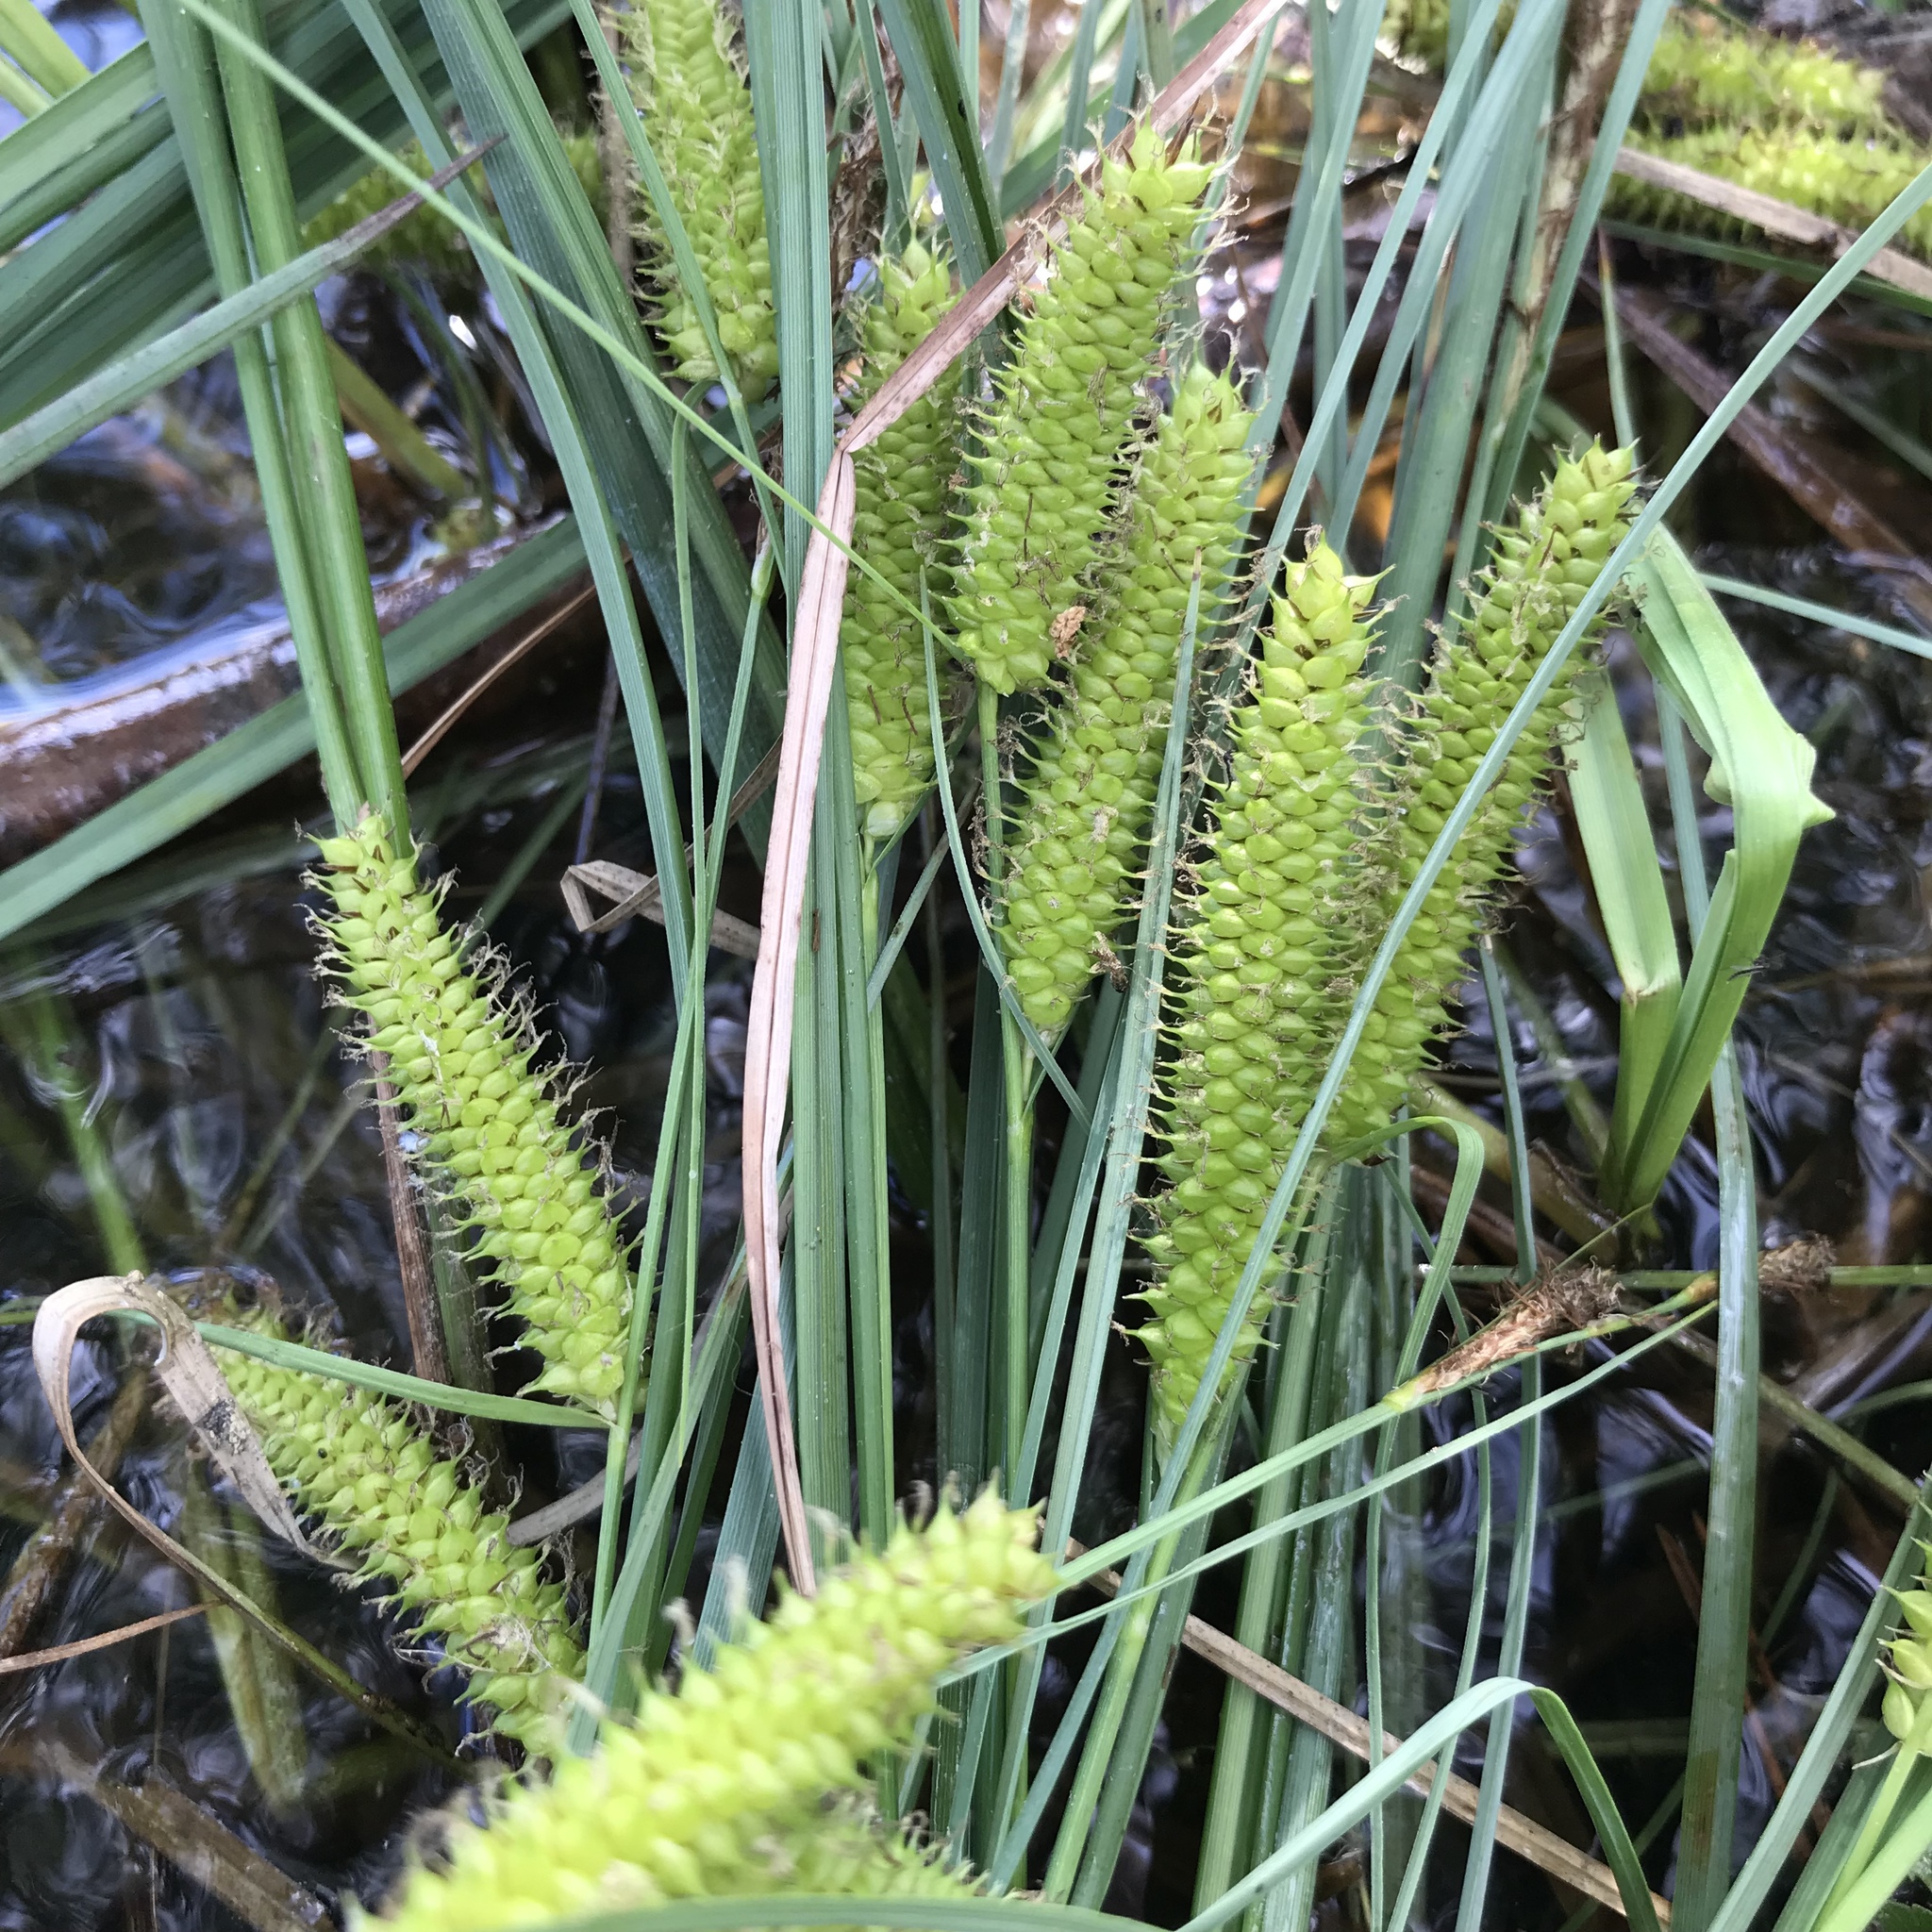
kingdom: Plantae
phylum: Tracheophyta
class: Liliopsida
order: Poales
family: Cyperaceae
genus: Carex
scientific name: Carex rostrata
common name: Bottle sedge
